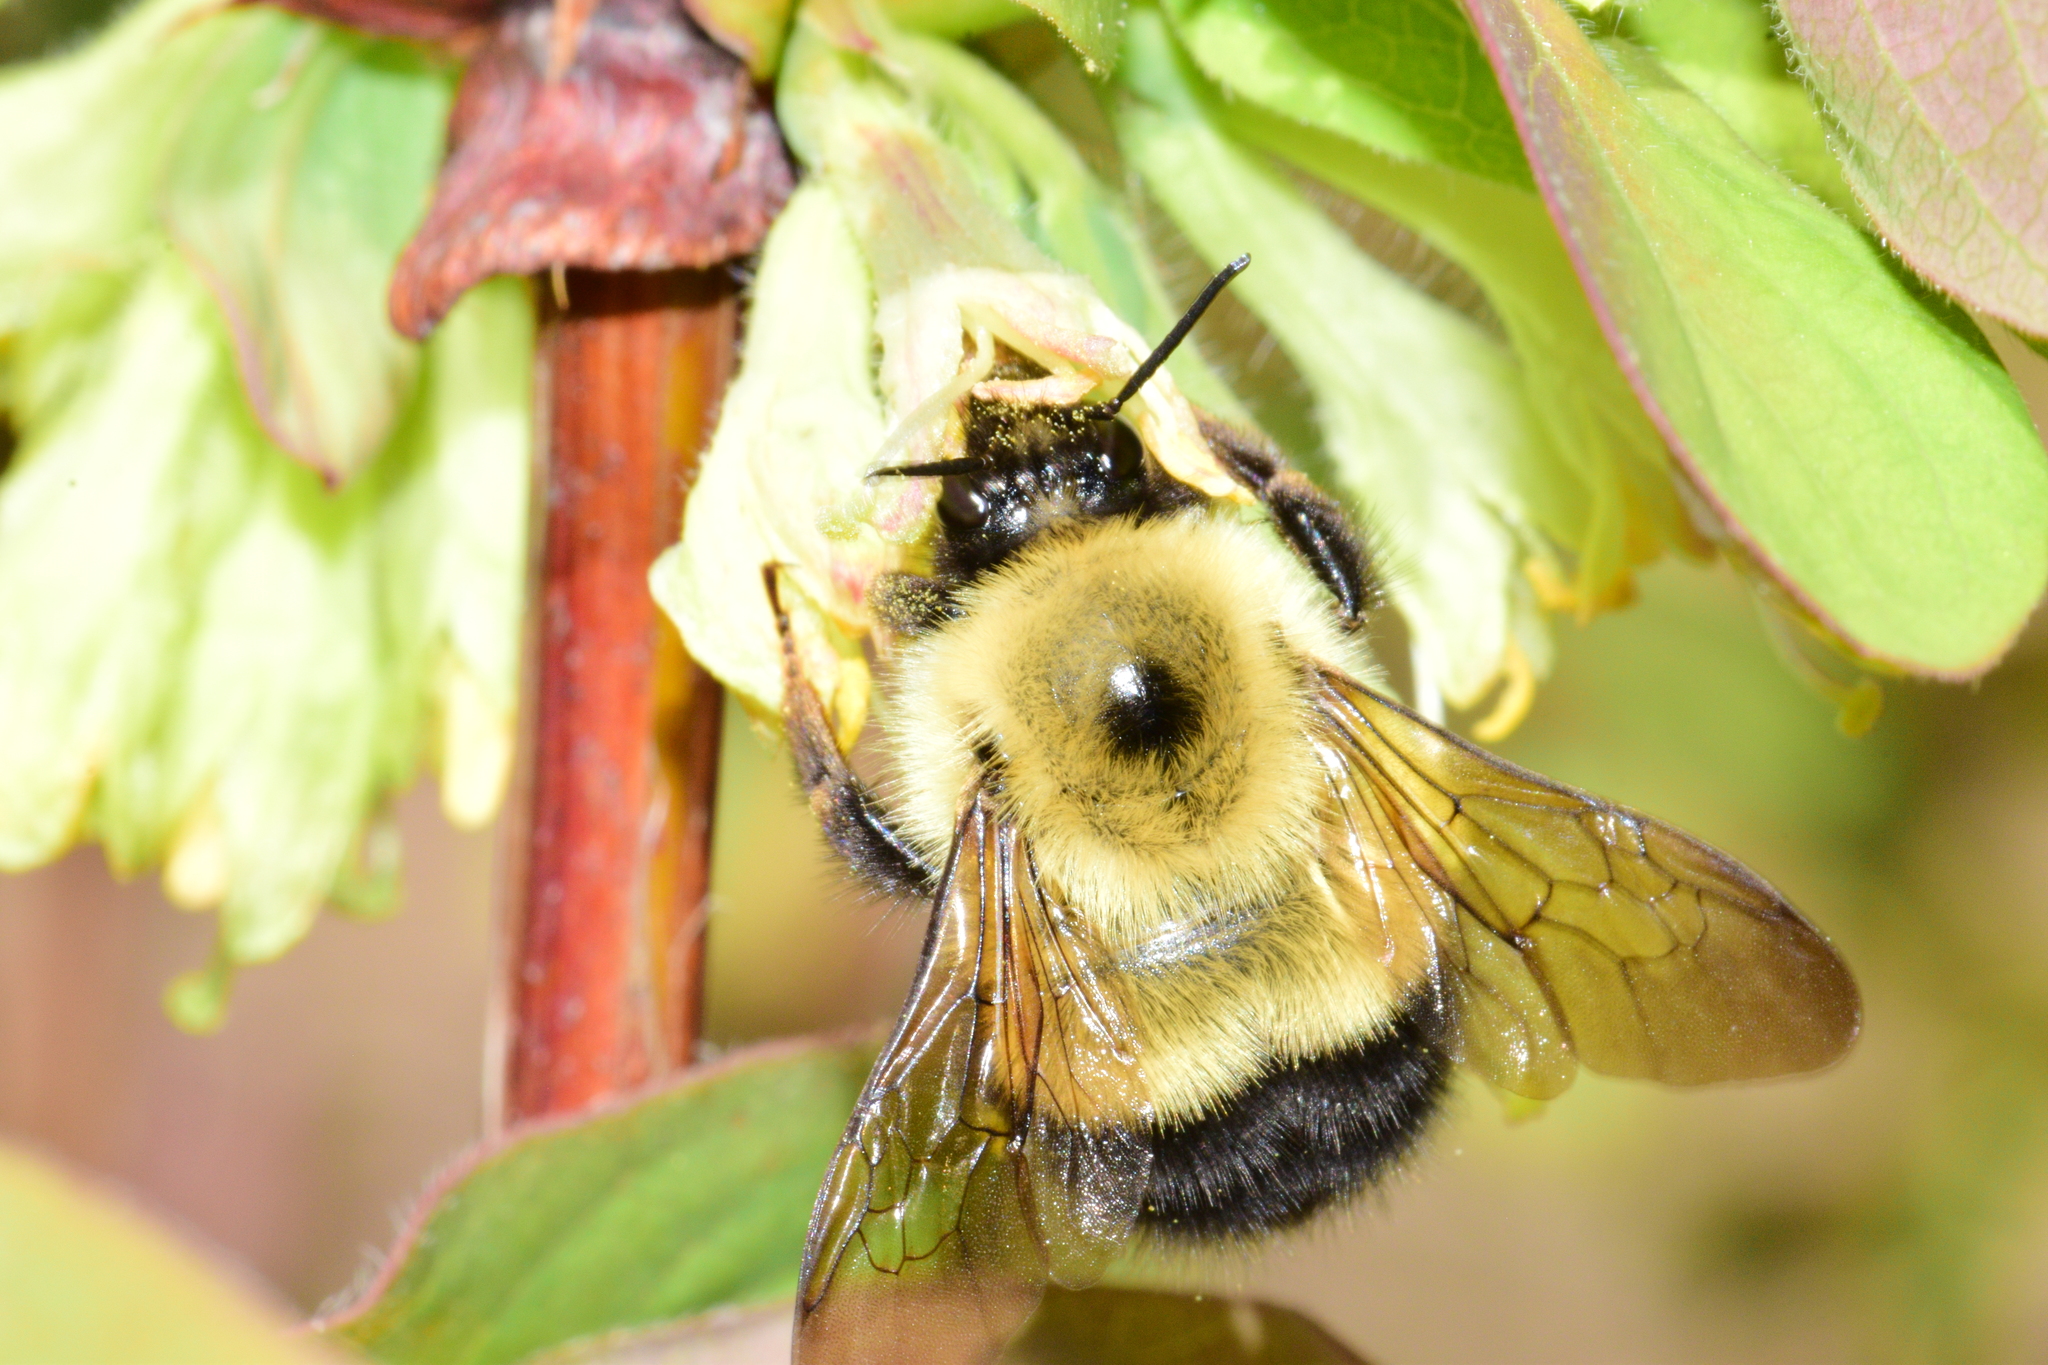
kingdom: Animalia
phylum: Arthropoda
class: Insecta
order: Hymenoptera
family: Apidae
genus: Pyrobombus
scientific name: Pyrobombus
